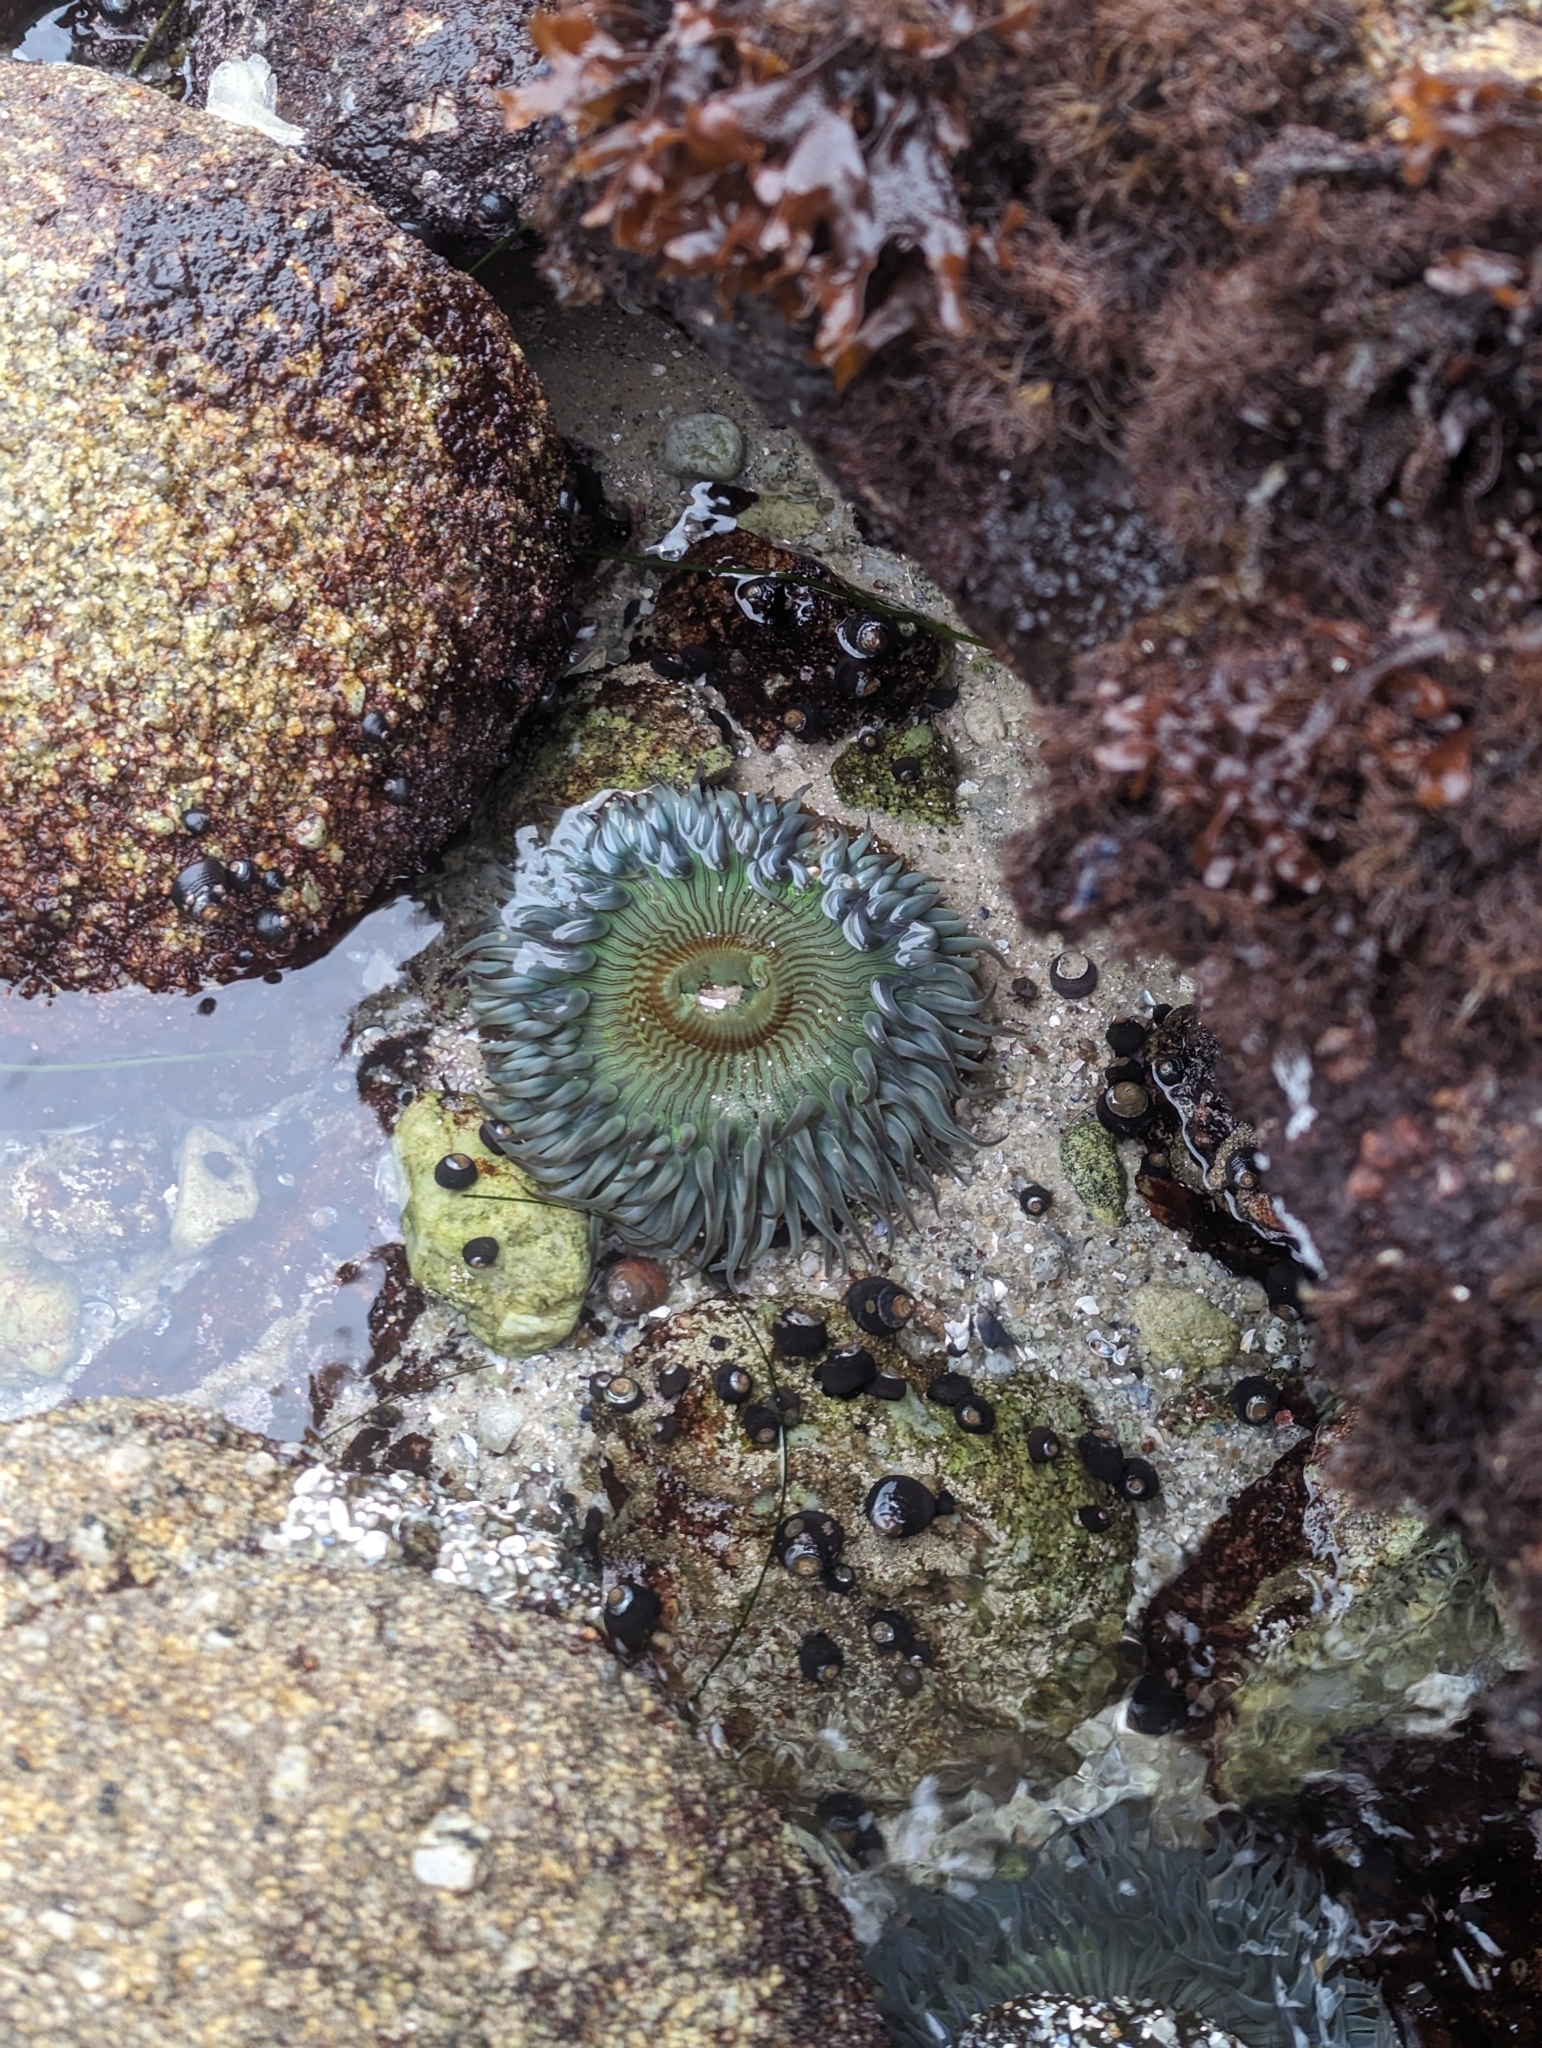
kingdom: Animalia
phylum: Cnidaria
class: Anthozoa
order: Actiniaria
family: Actiniidae
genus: Anthopleura
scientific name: Anthopleura sola
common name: Sun anemone
